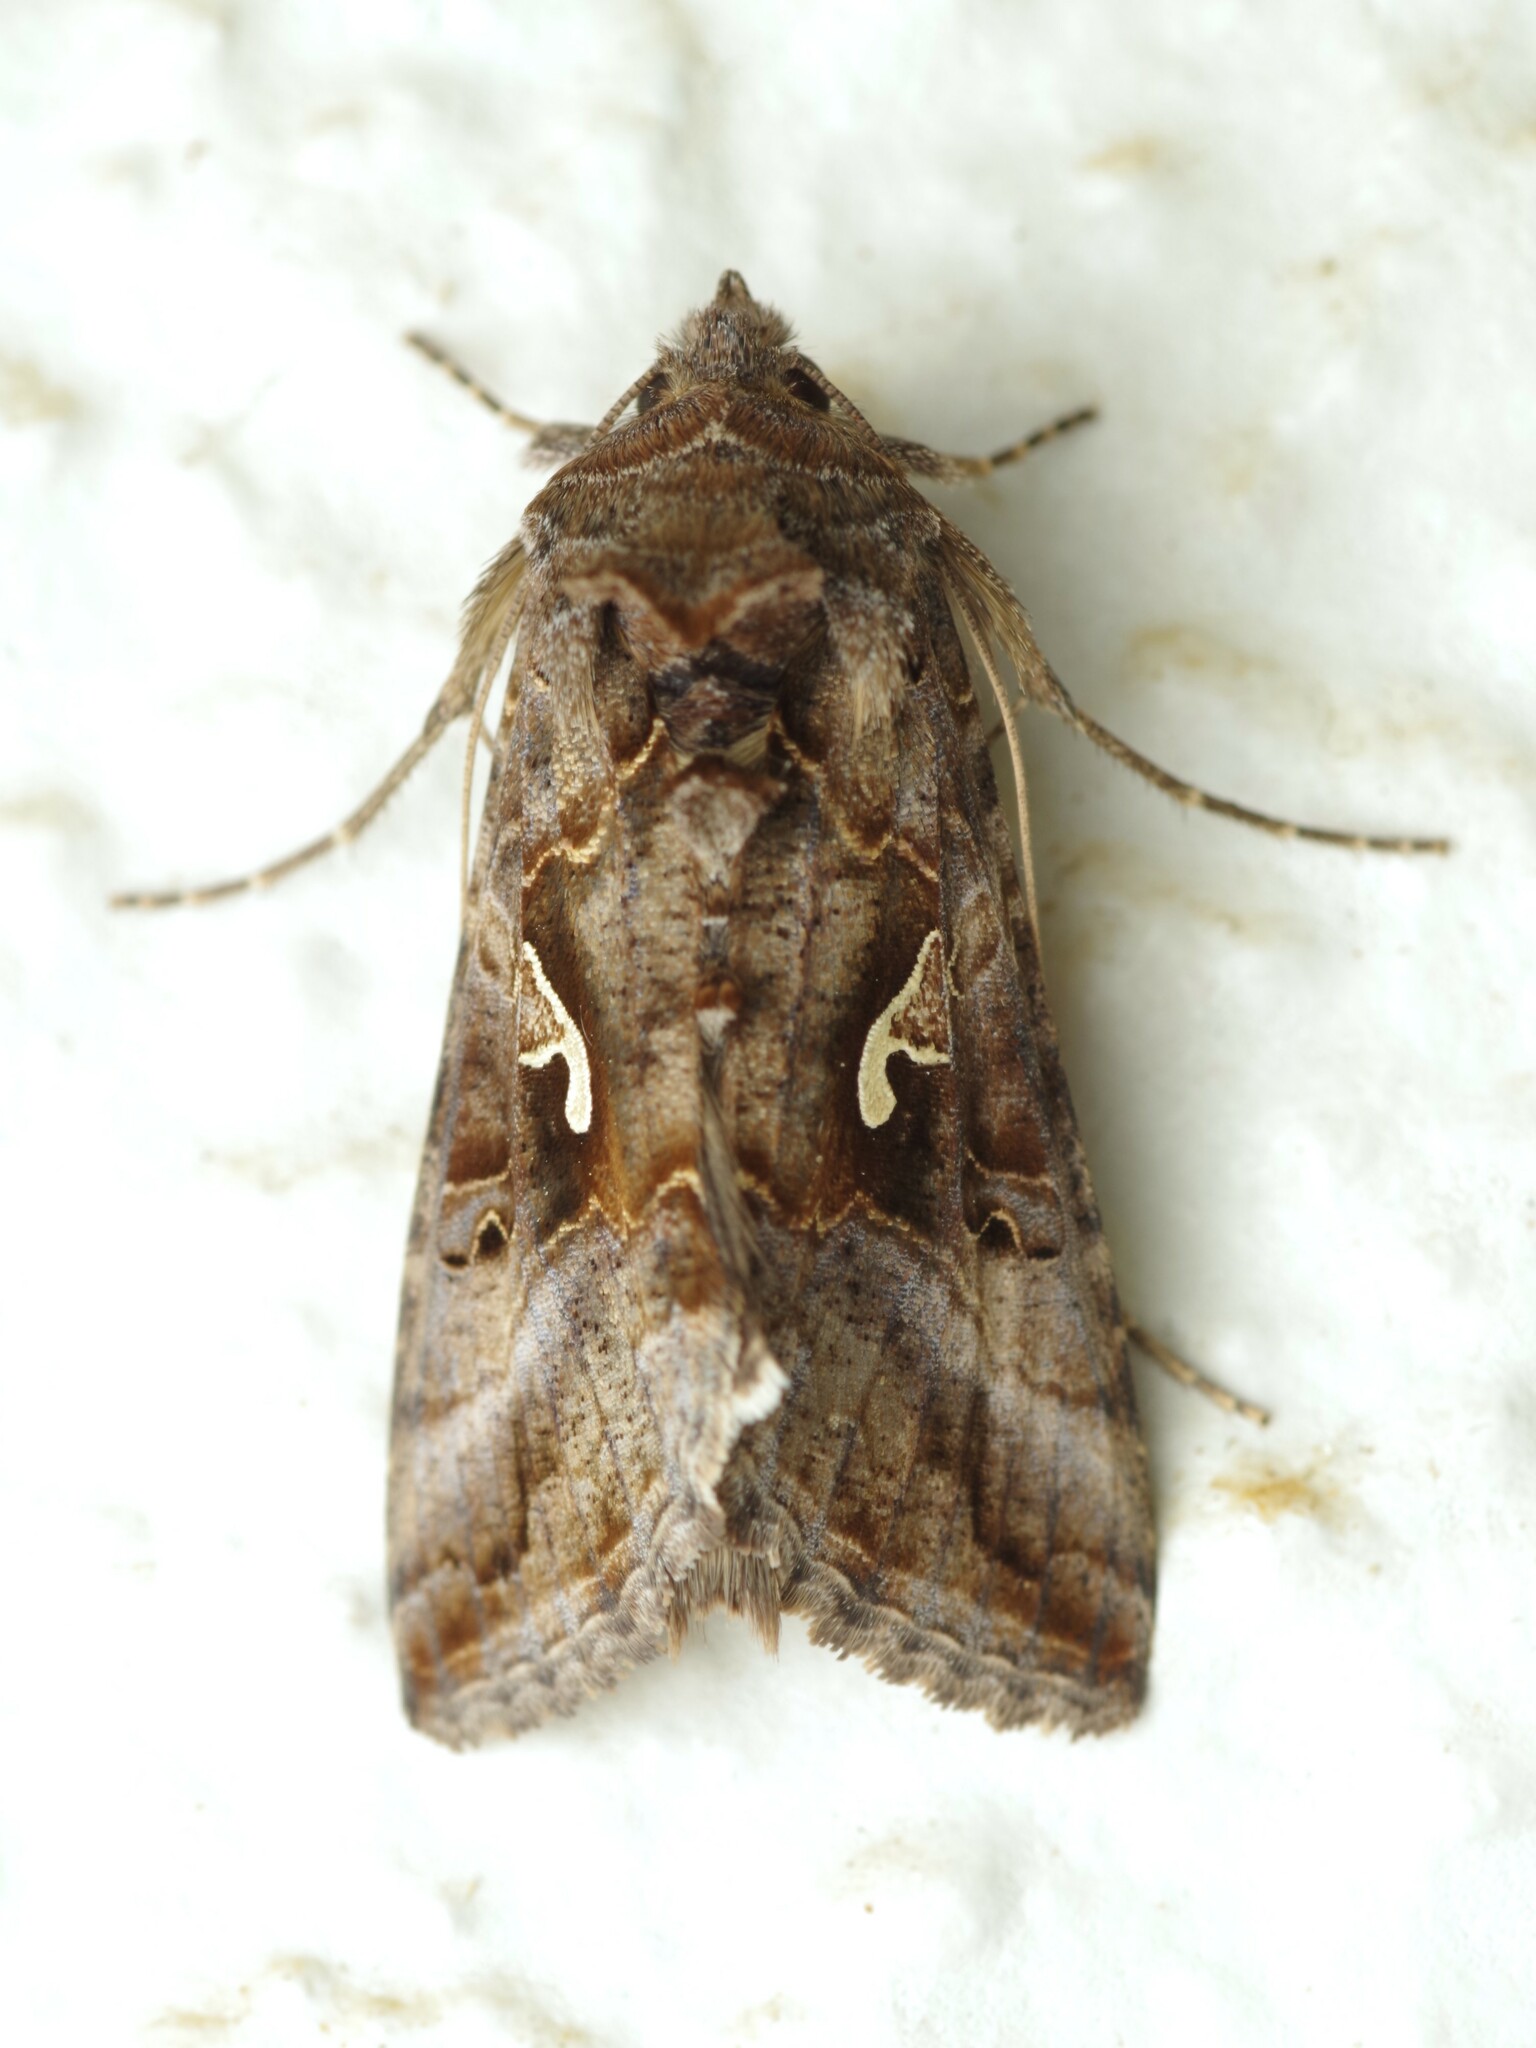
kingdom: Animalia
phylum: Arthropoda
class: Insecta
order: Lepidoptera
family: Noctuidae
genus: Autographa
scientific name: Autographa gamma
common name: Silver y
